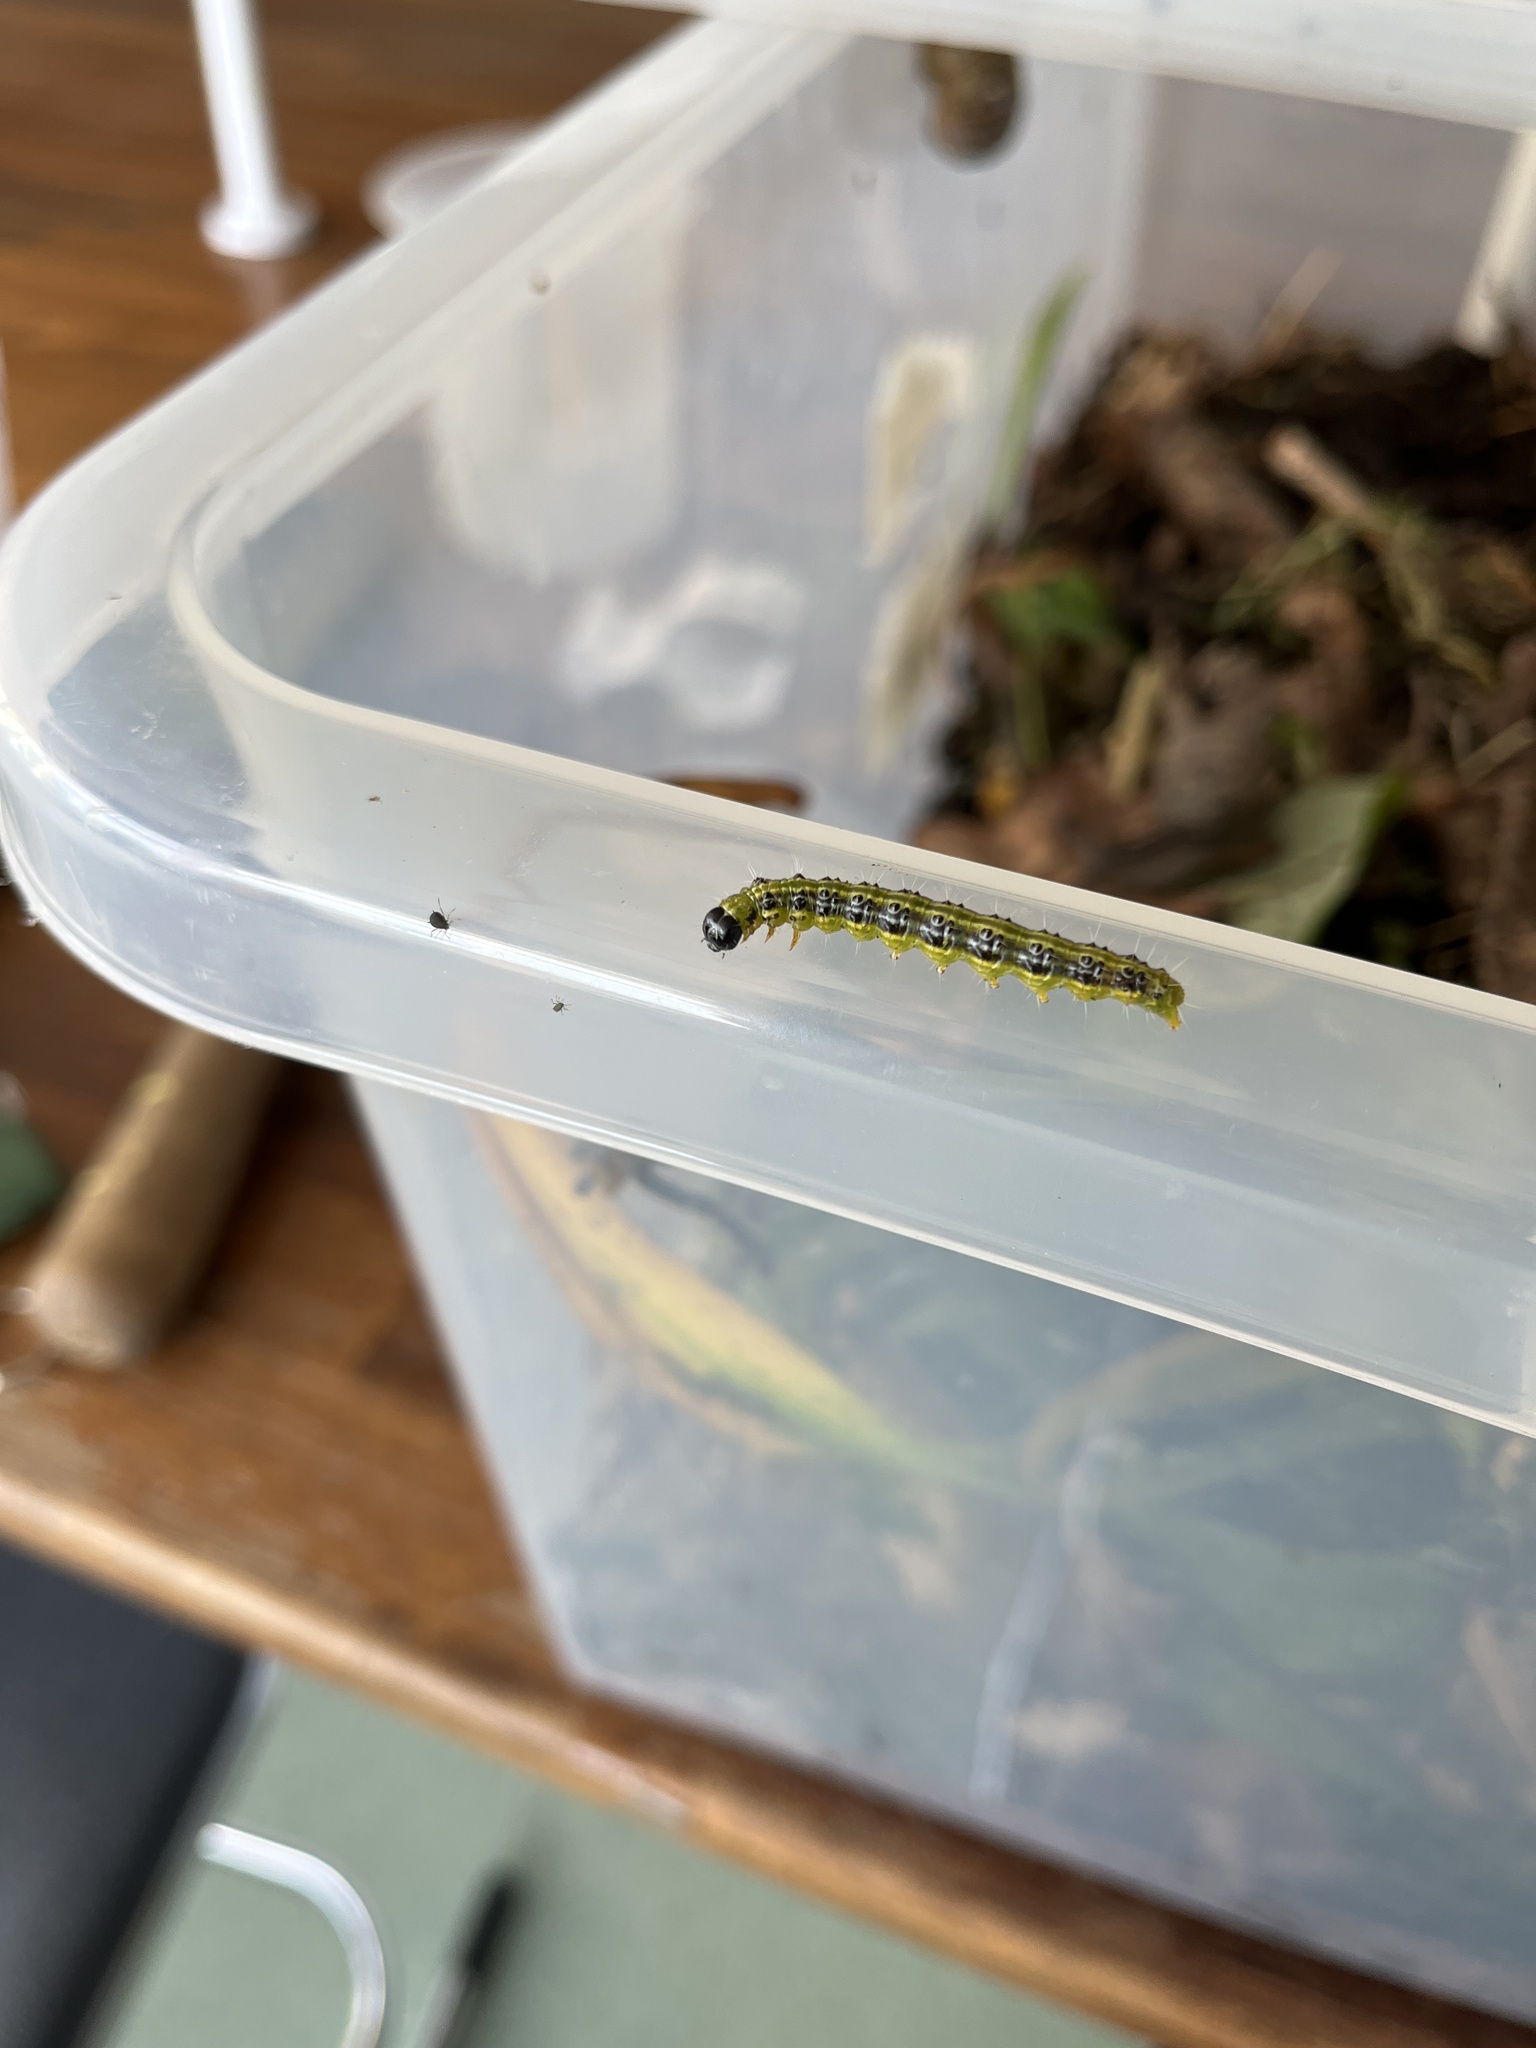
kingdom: Animalia
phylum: Arthropoda
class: Insecta
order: Lepidoptera
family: Crambidae
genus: Cydalima
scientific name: Cydalima perspectalis
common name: Box tree moth
